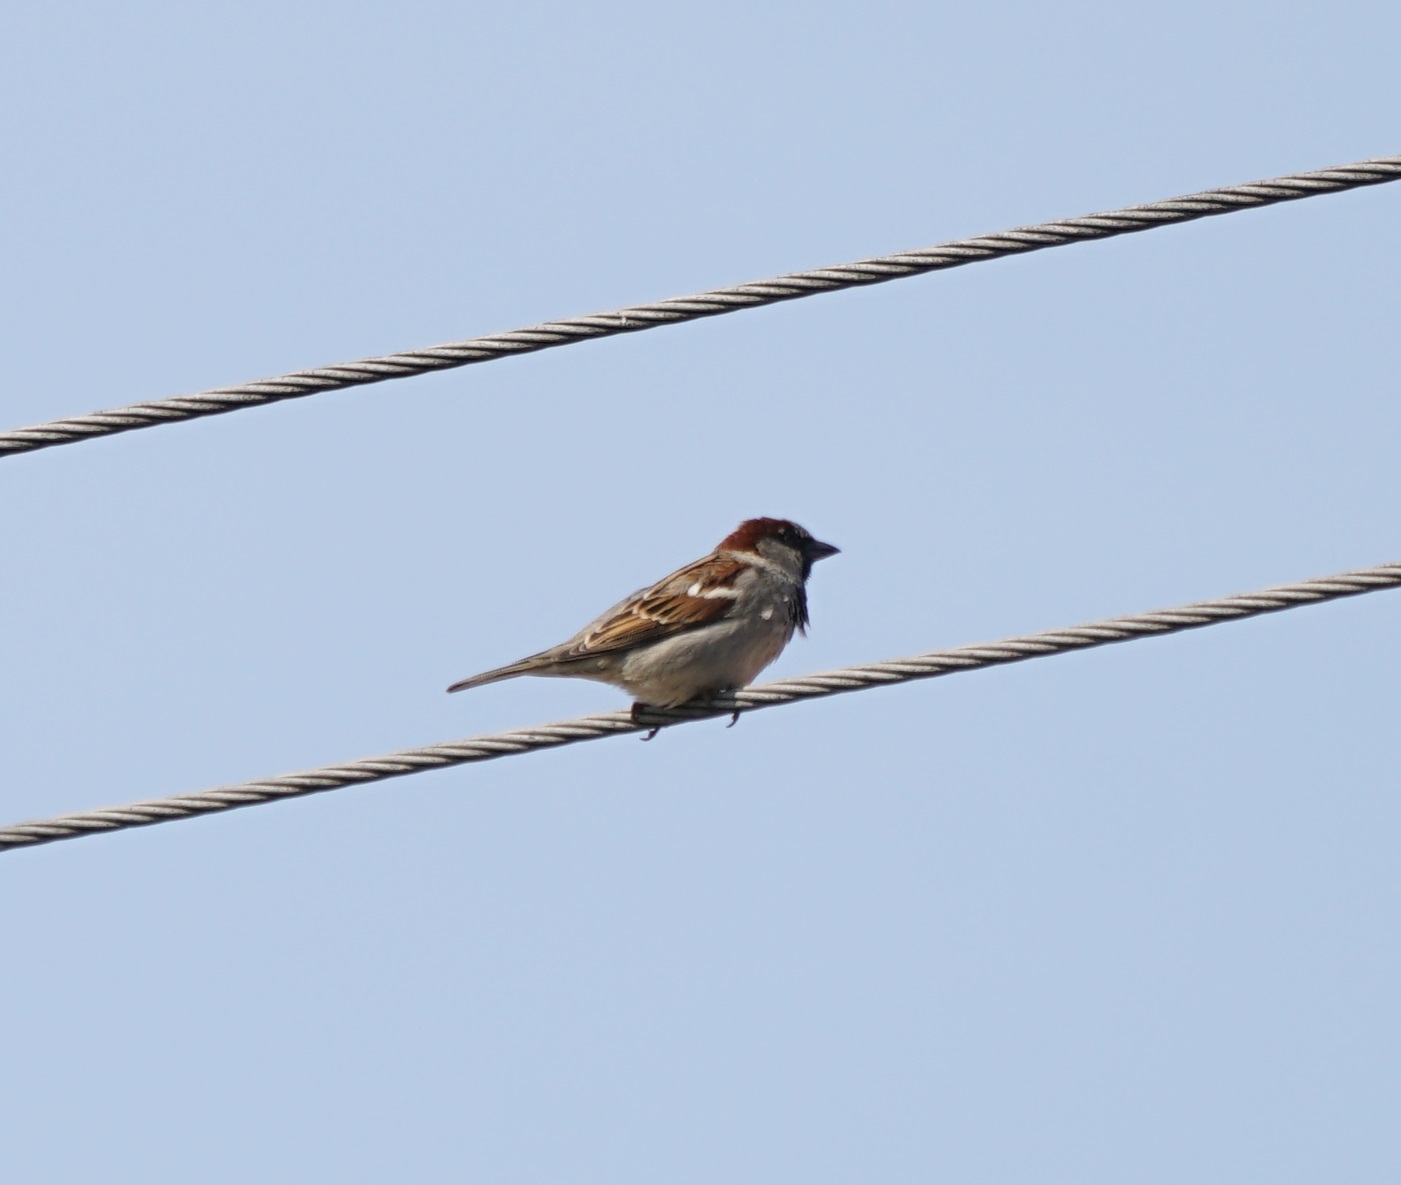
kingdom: Animalia
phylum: Chordata
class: Aves
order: Passeriformes
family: Passeridae
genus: Passer
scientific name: Passer domesticus
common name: House sparrow
